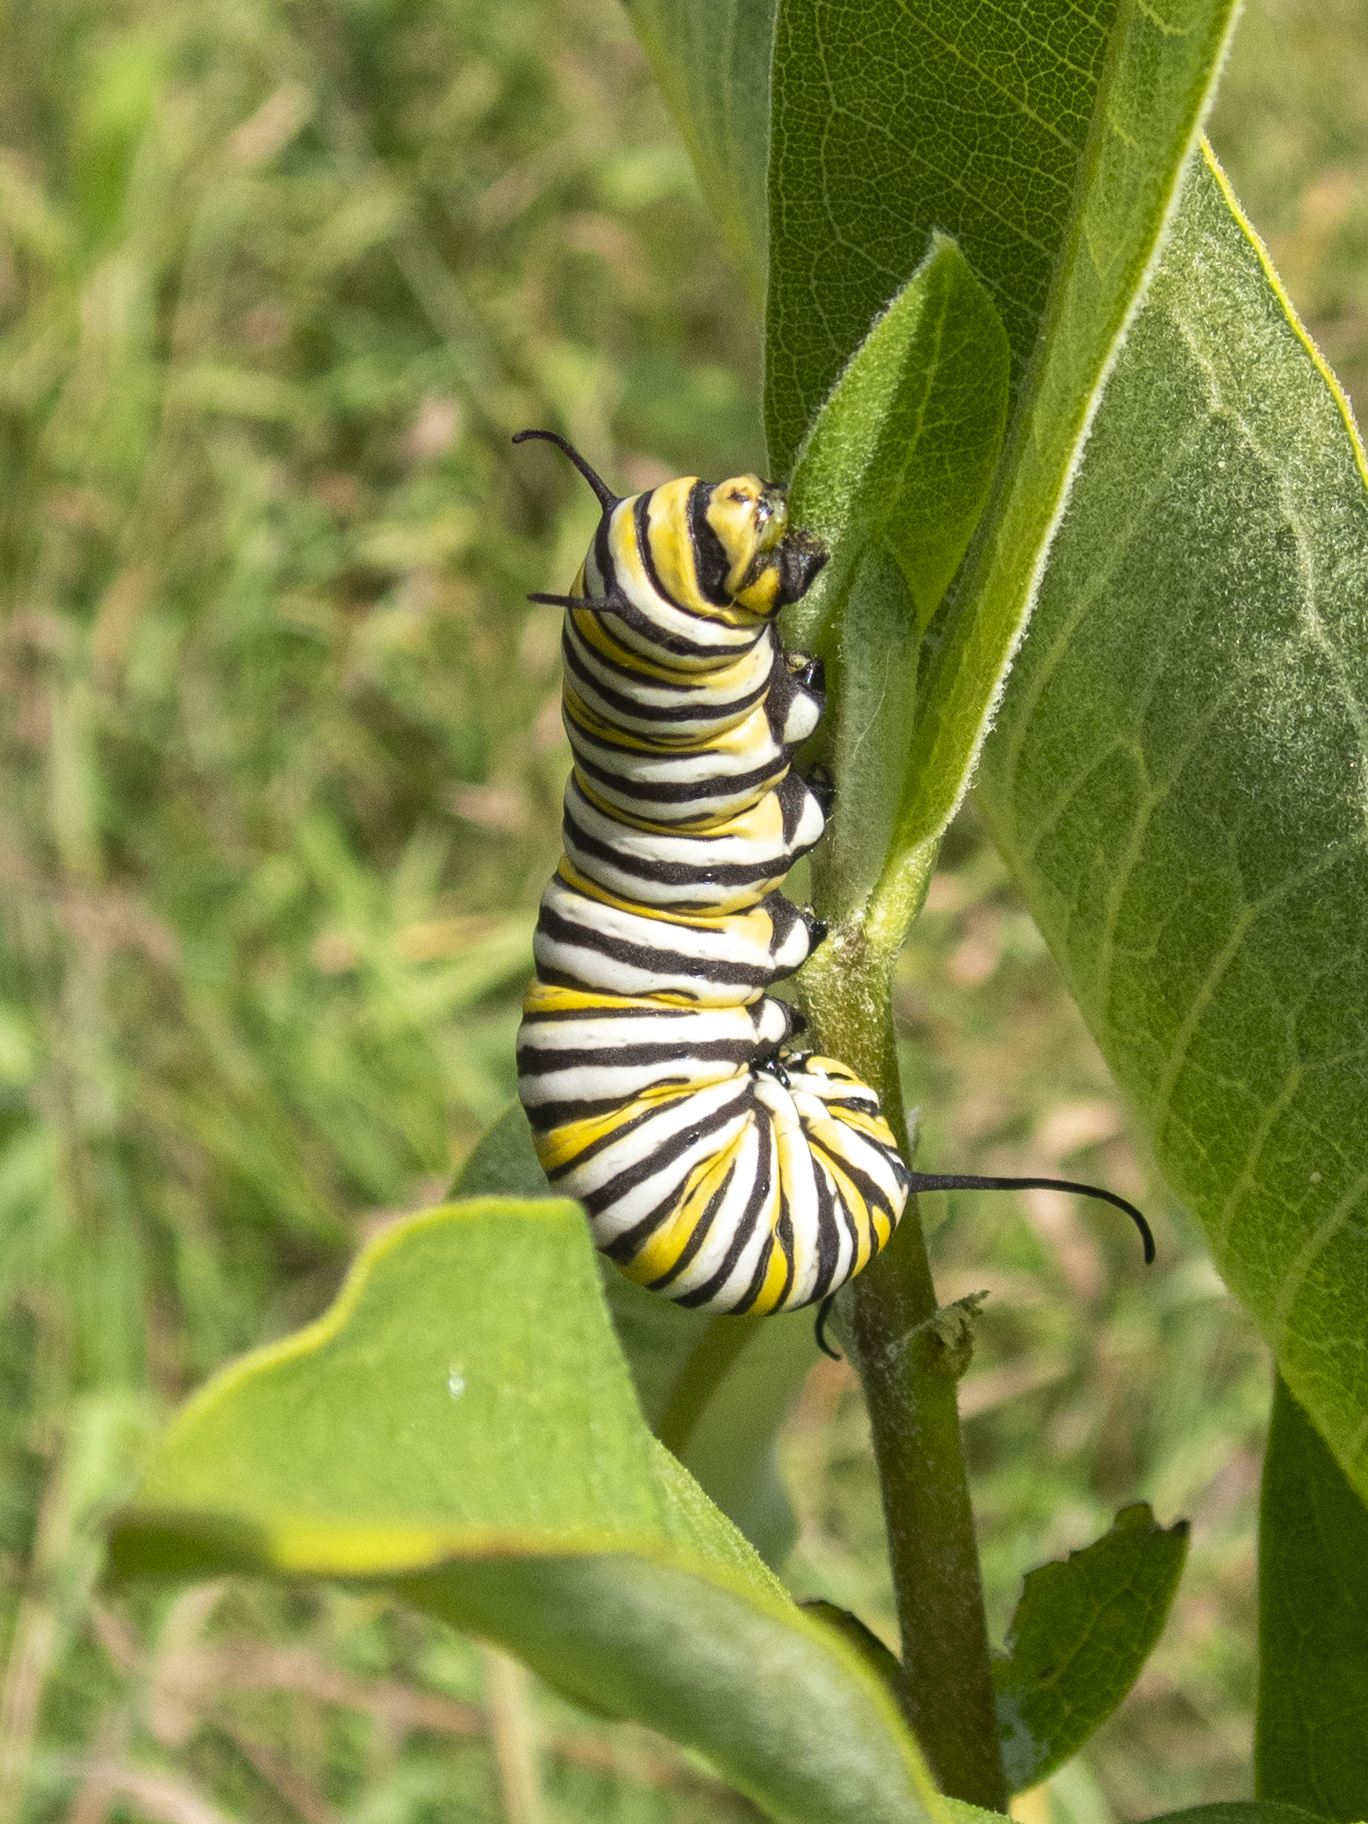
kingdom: Animalia
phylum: Arthropoda
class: Insecta
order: Lepidoptera
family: Nymphalidae
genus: Danaus
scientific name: Danaus plexippus
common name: Monarch
